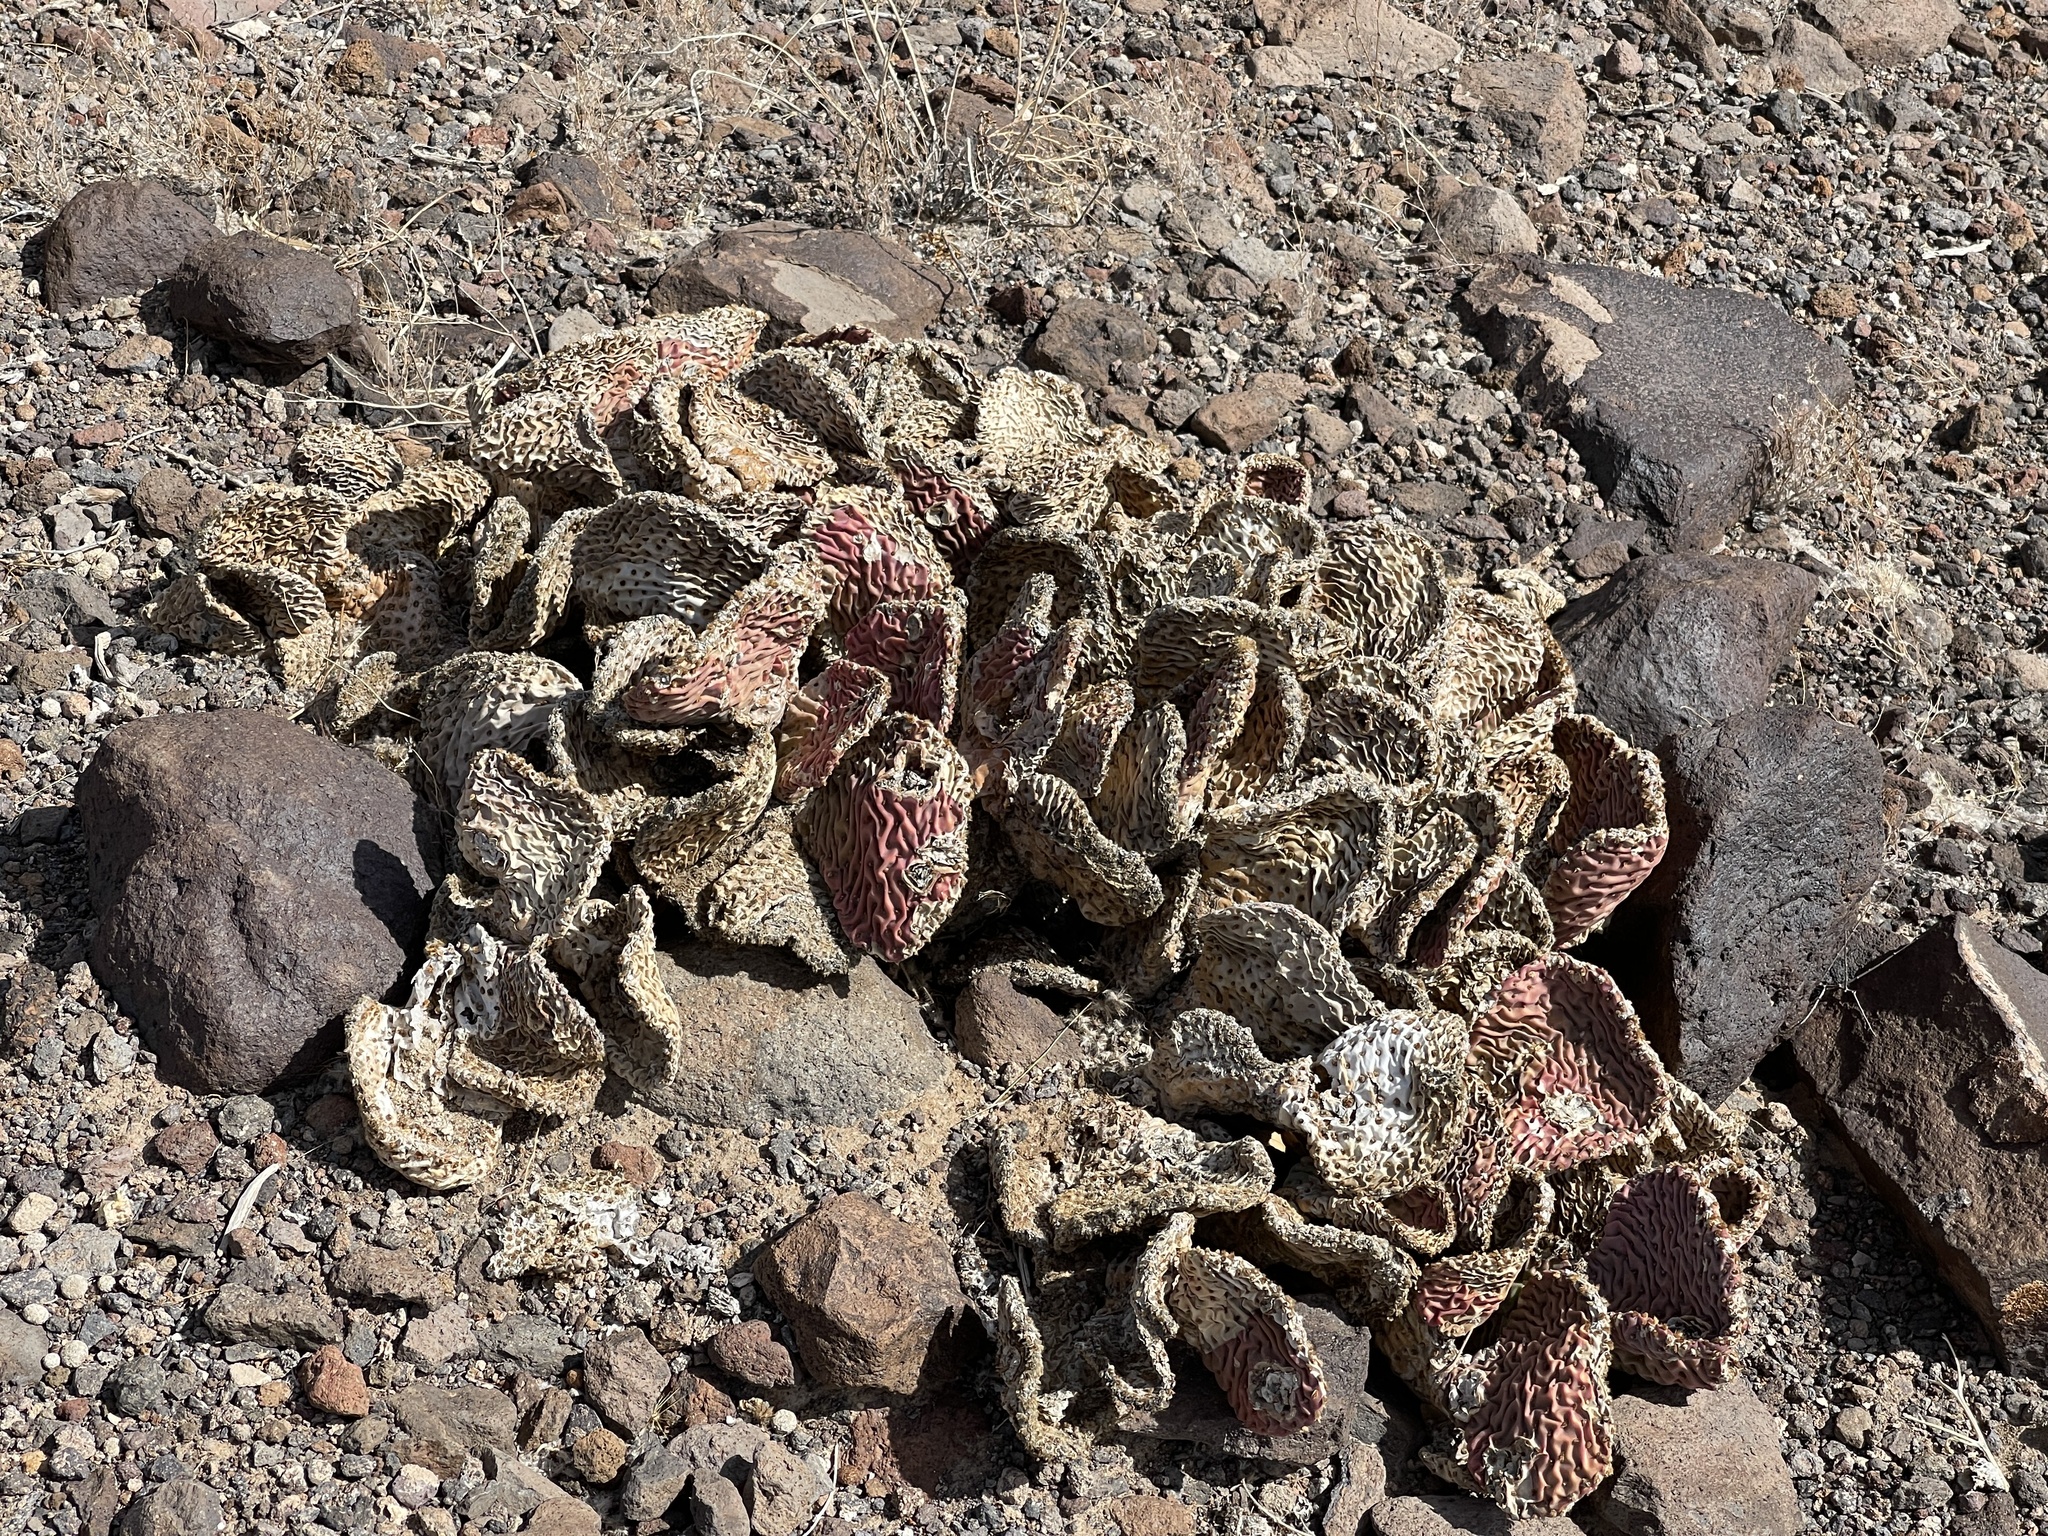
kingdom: Plantae
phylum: Tracheophyta
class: Magnoliopsida
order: Caryophyllales
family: Cactaceae
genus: Opuntia
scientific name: Opuntia basilaris
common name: Beavertail prickly-pear
